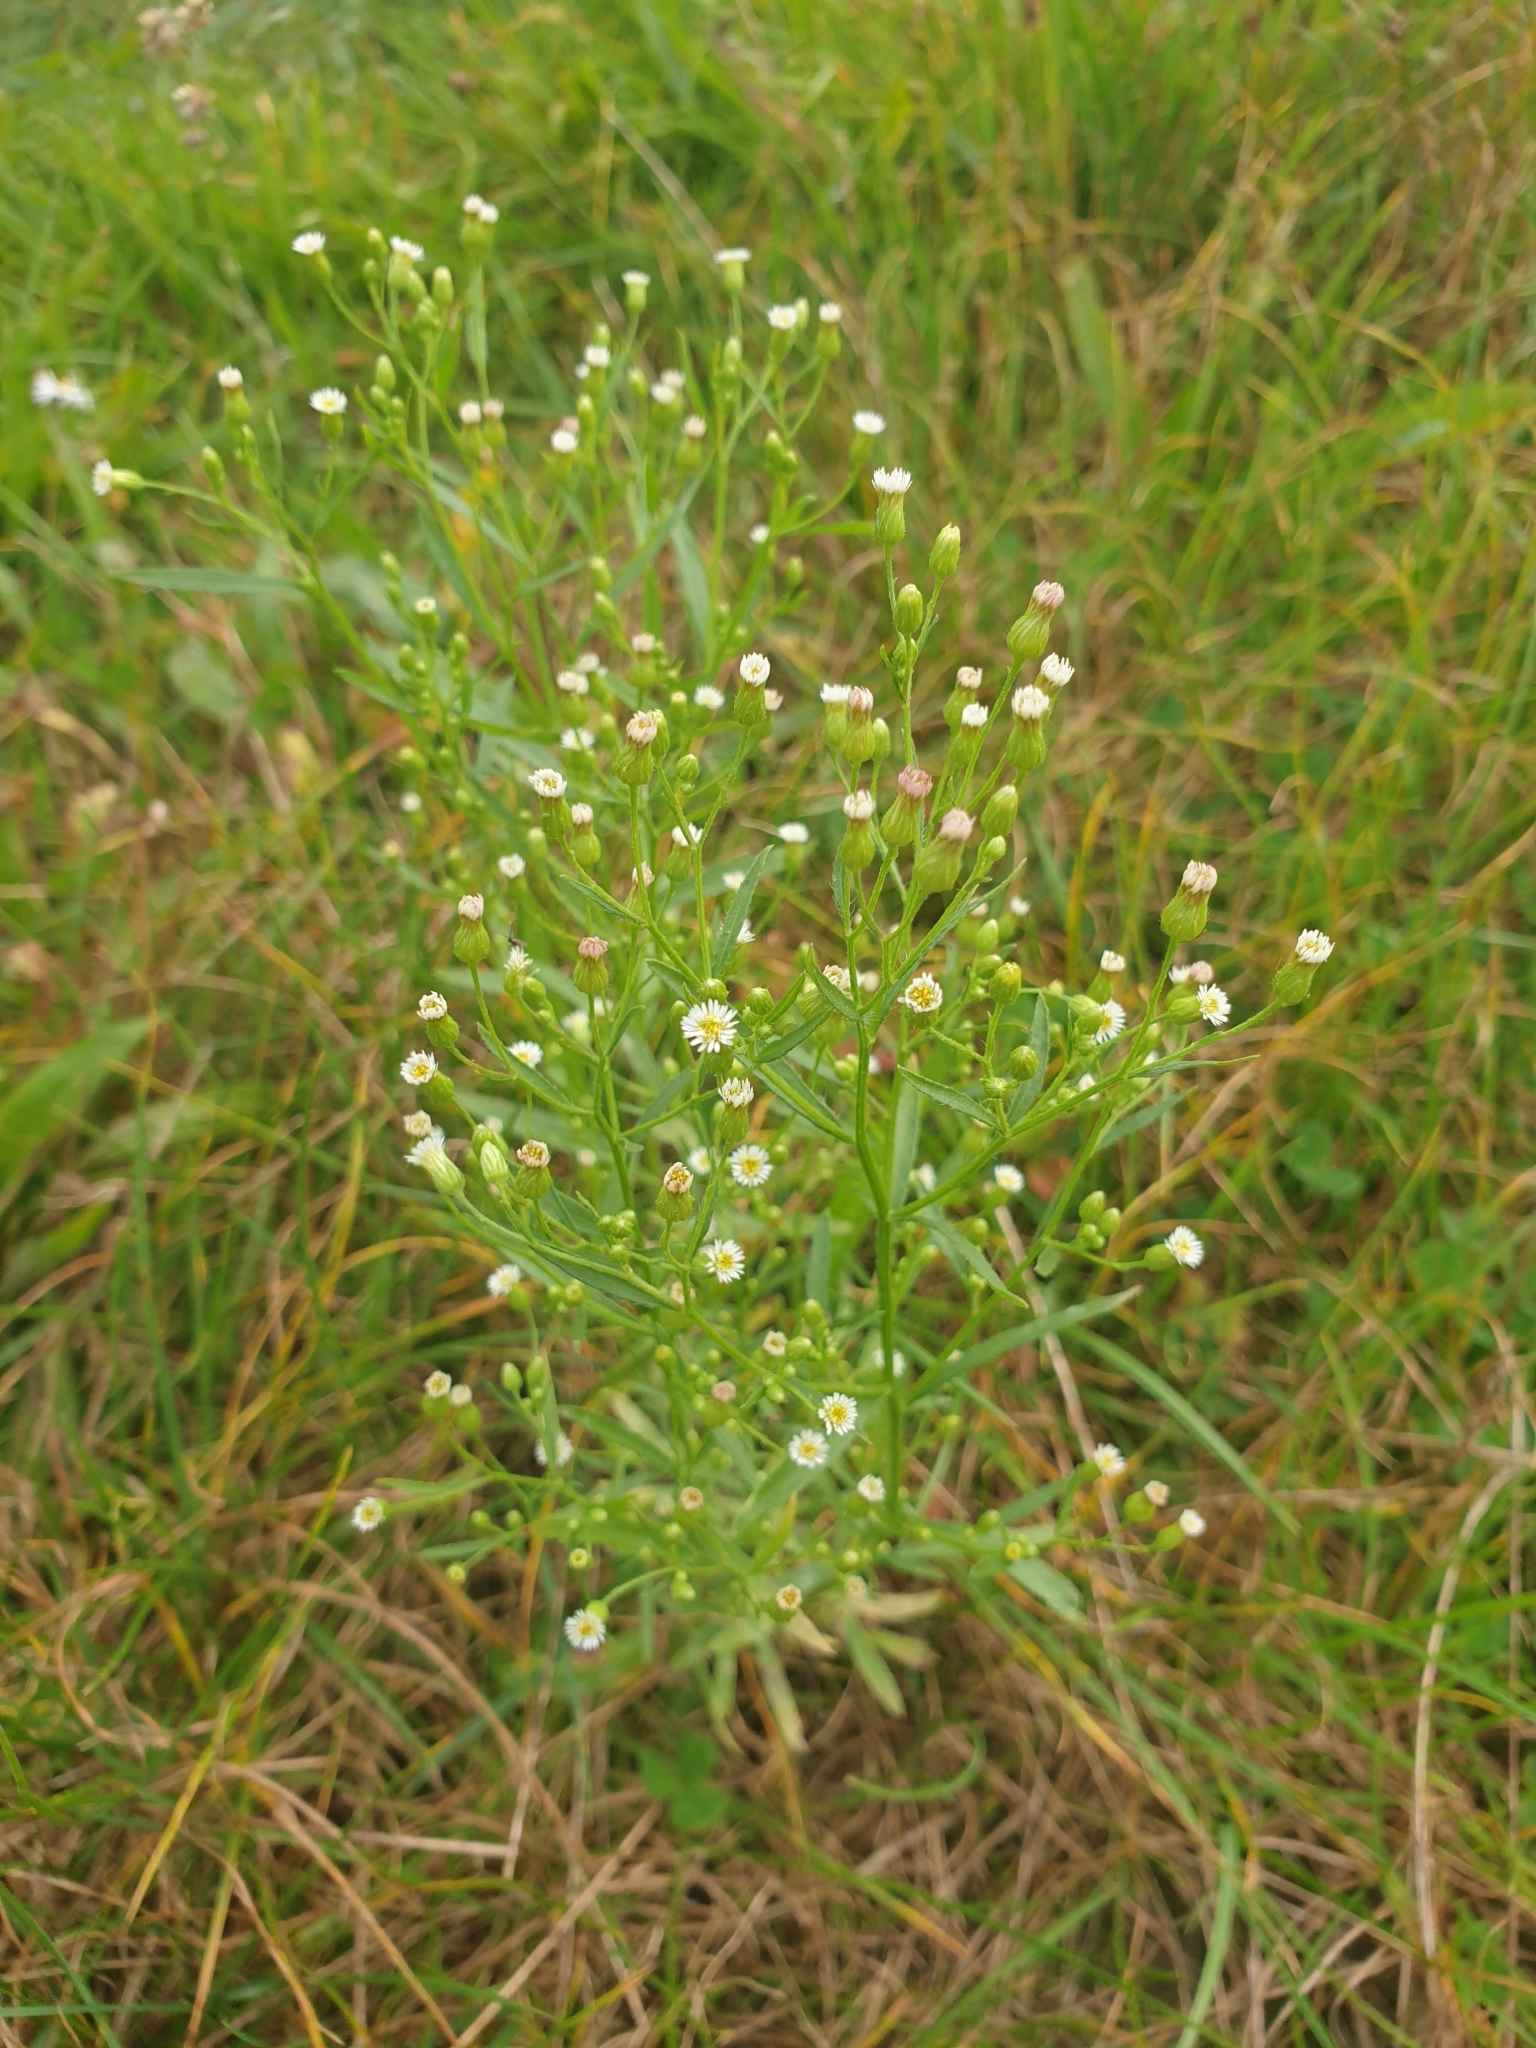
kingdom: Plantae
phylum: Tracheophyta
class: Magnoliopsida
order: Asterales
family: Asteraceae
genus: Erigeron
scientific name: Erigeron canadensis
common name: Canadian fleabane
